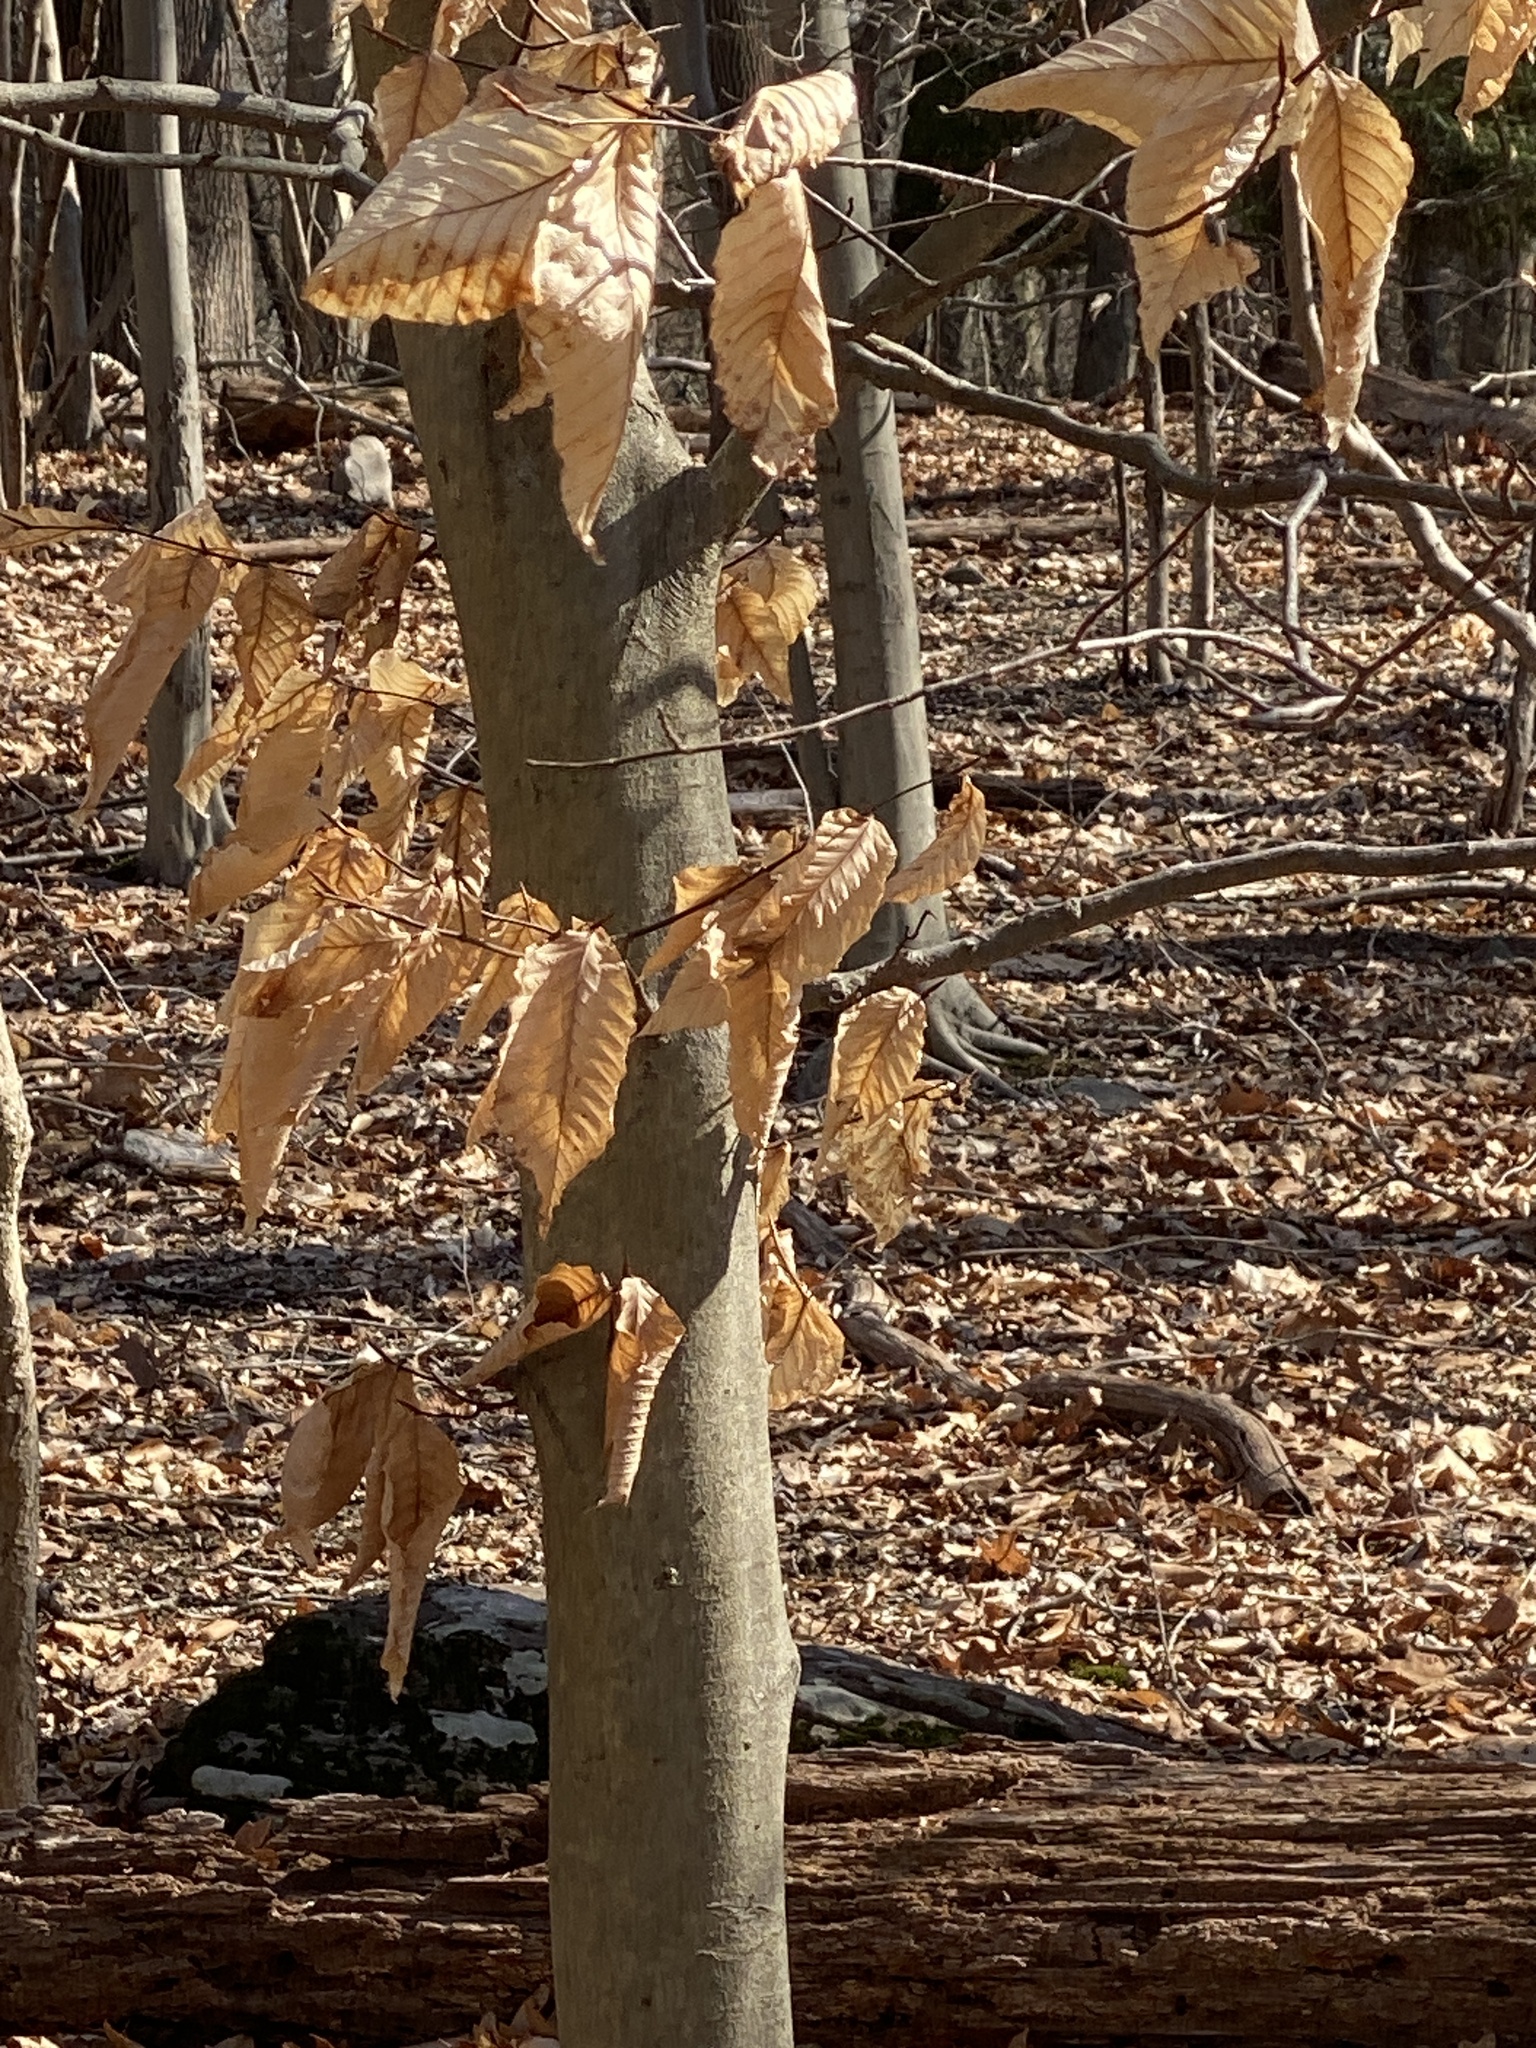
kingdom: Plantae
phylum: Tracheophyta
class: Magnoliopsida
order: Fagales
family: Fagaceae
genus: Fagus
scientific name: Fagus grandifolia
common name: American beech
